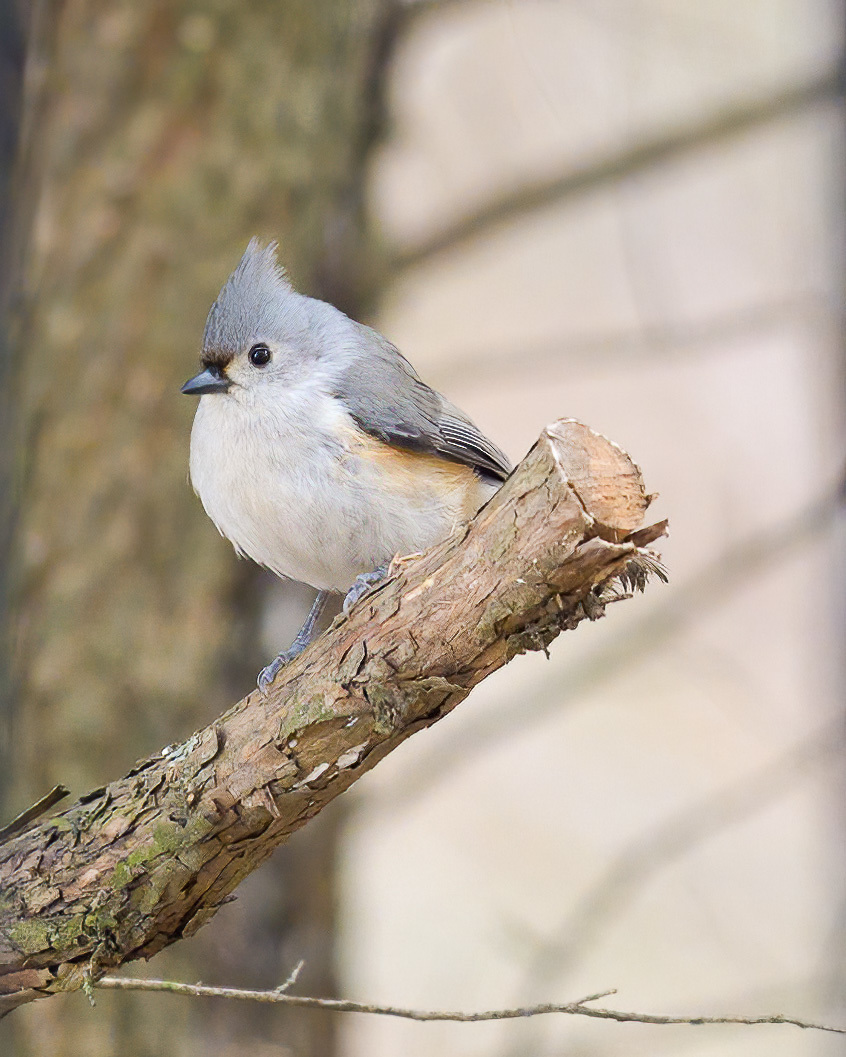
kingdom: Animalia
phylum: Chordata
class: Aves
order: Passeriformes
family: Paridae
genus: Baeolophus
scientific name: Baeolophus bicolor
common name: Tufted titmouse
